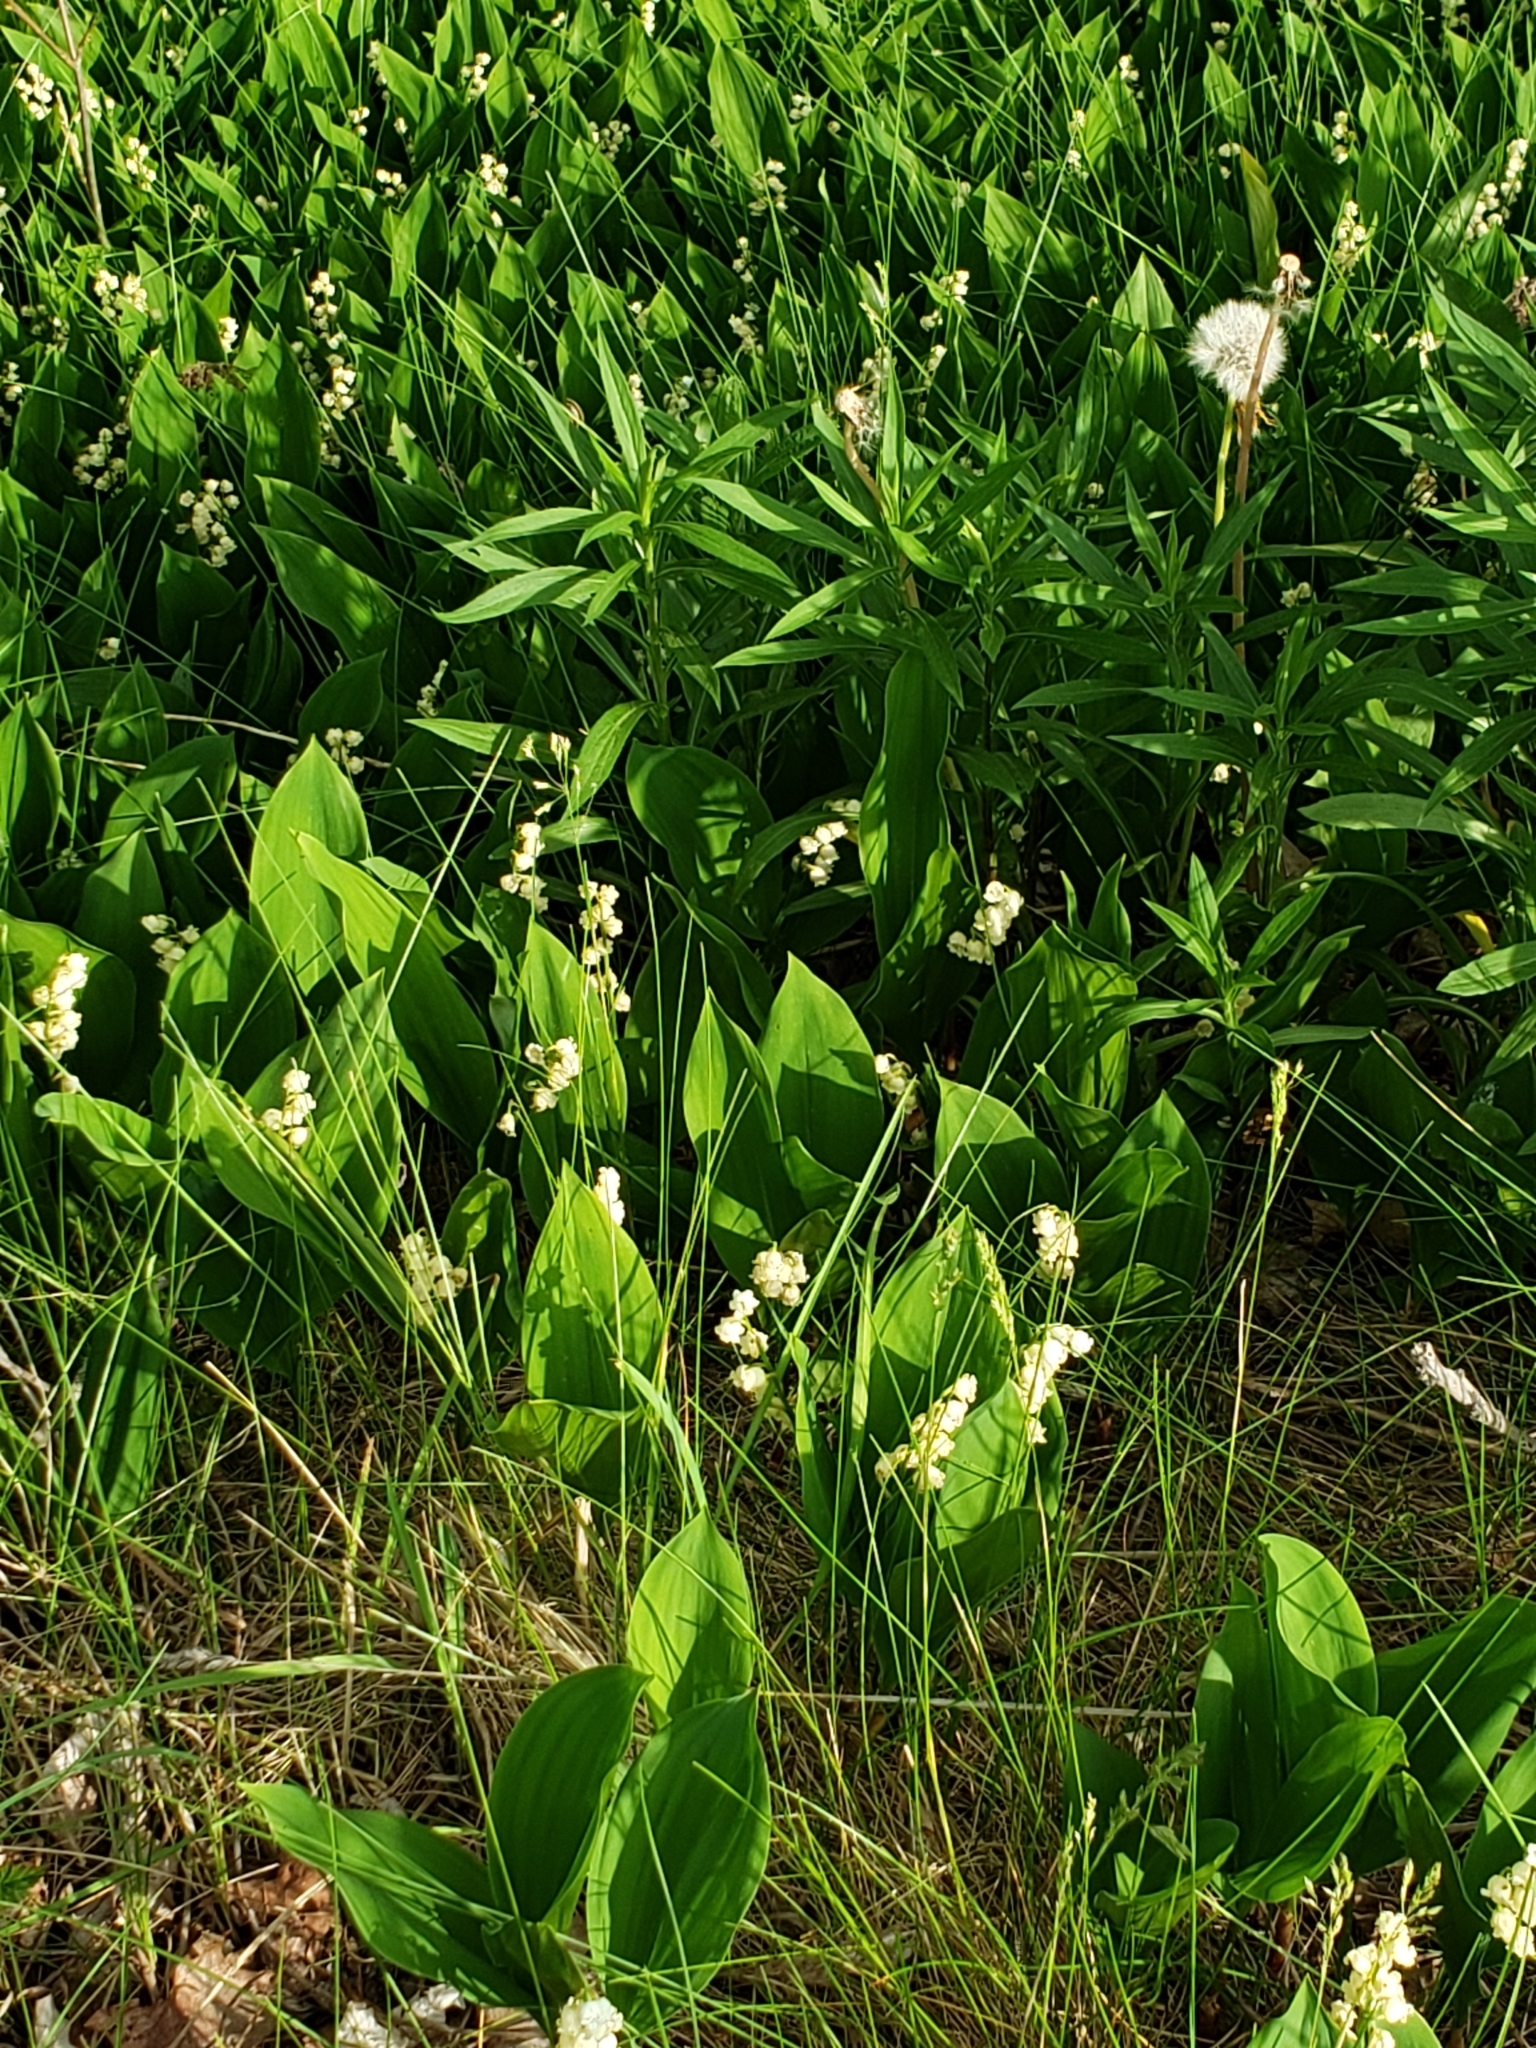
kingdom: Plantae
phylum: Tracheophyta
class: Liliopsida
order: Asparagales
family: Asparagaceae
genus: Convallaria
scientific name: Convallaria majalis
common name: Lily-of-the-valley
